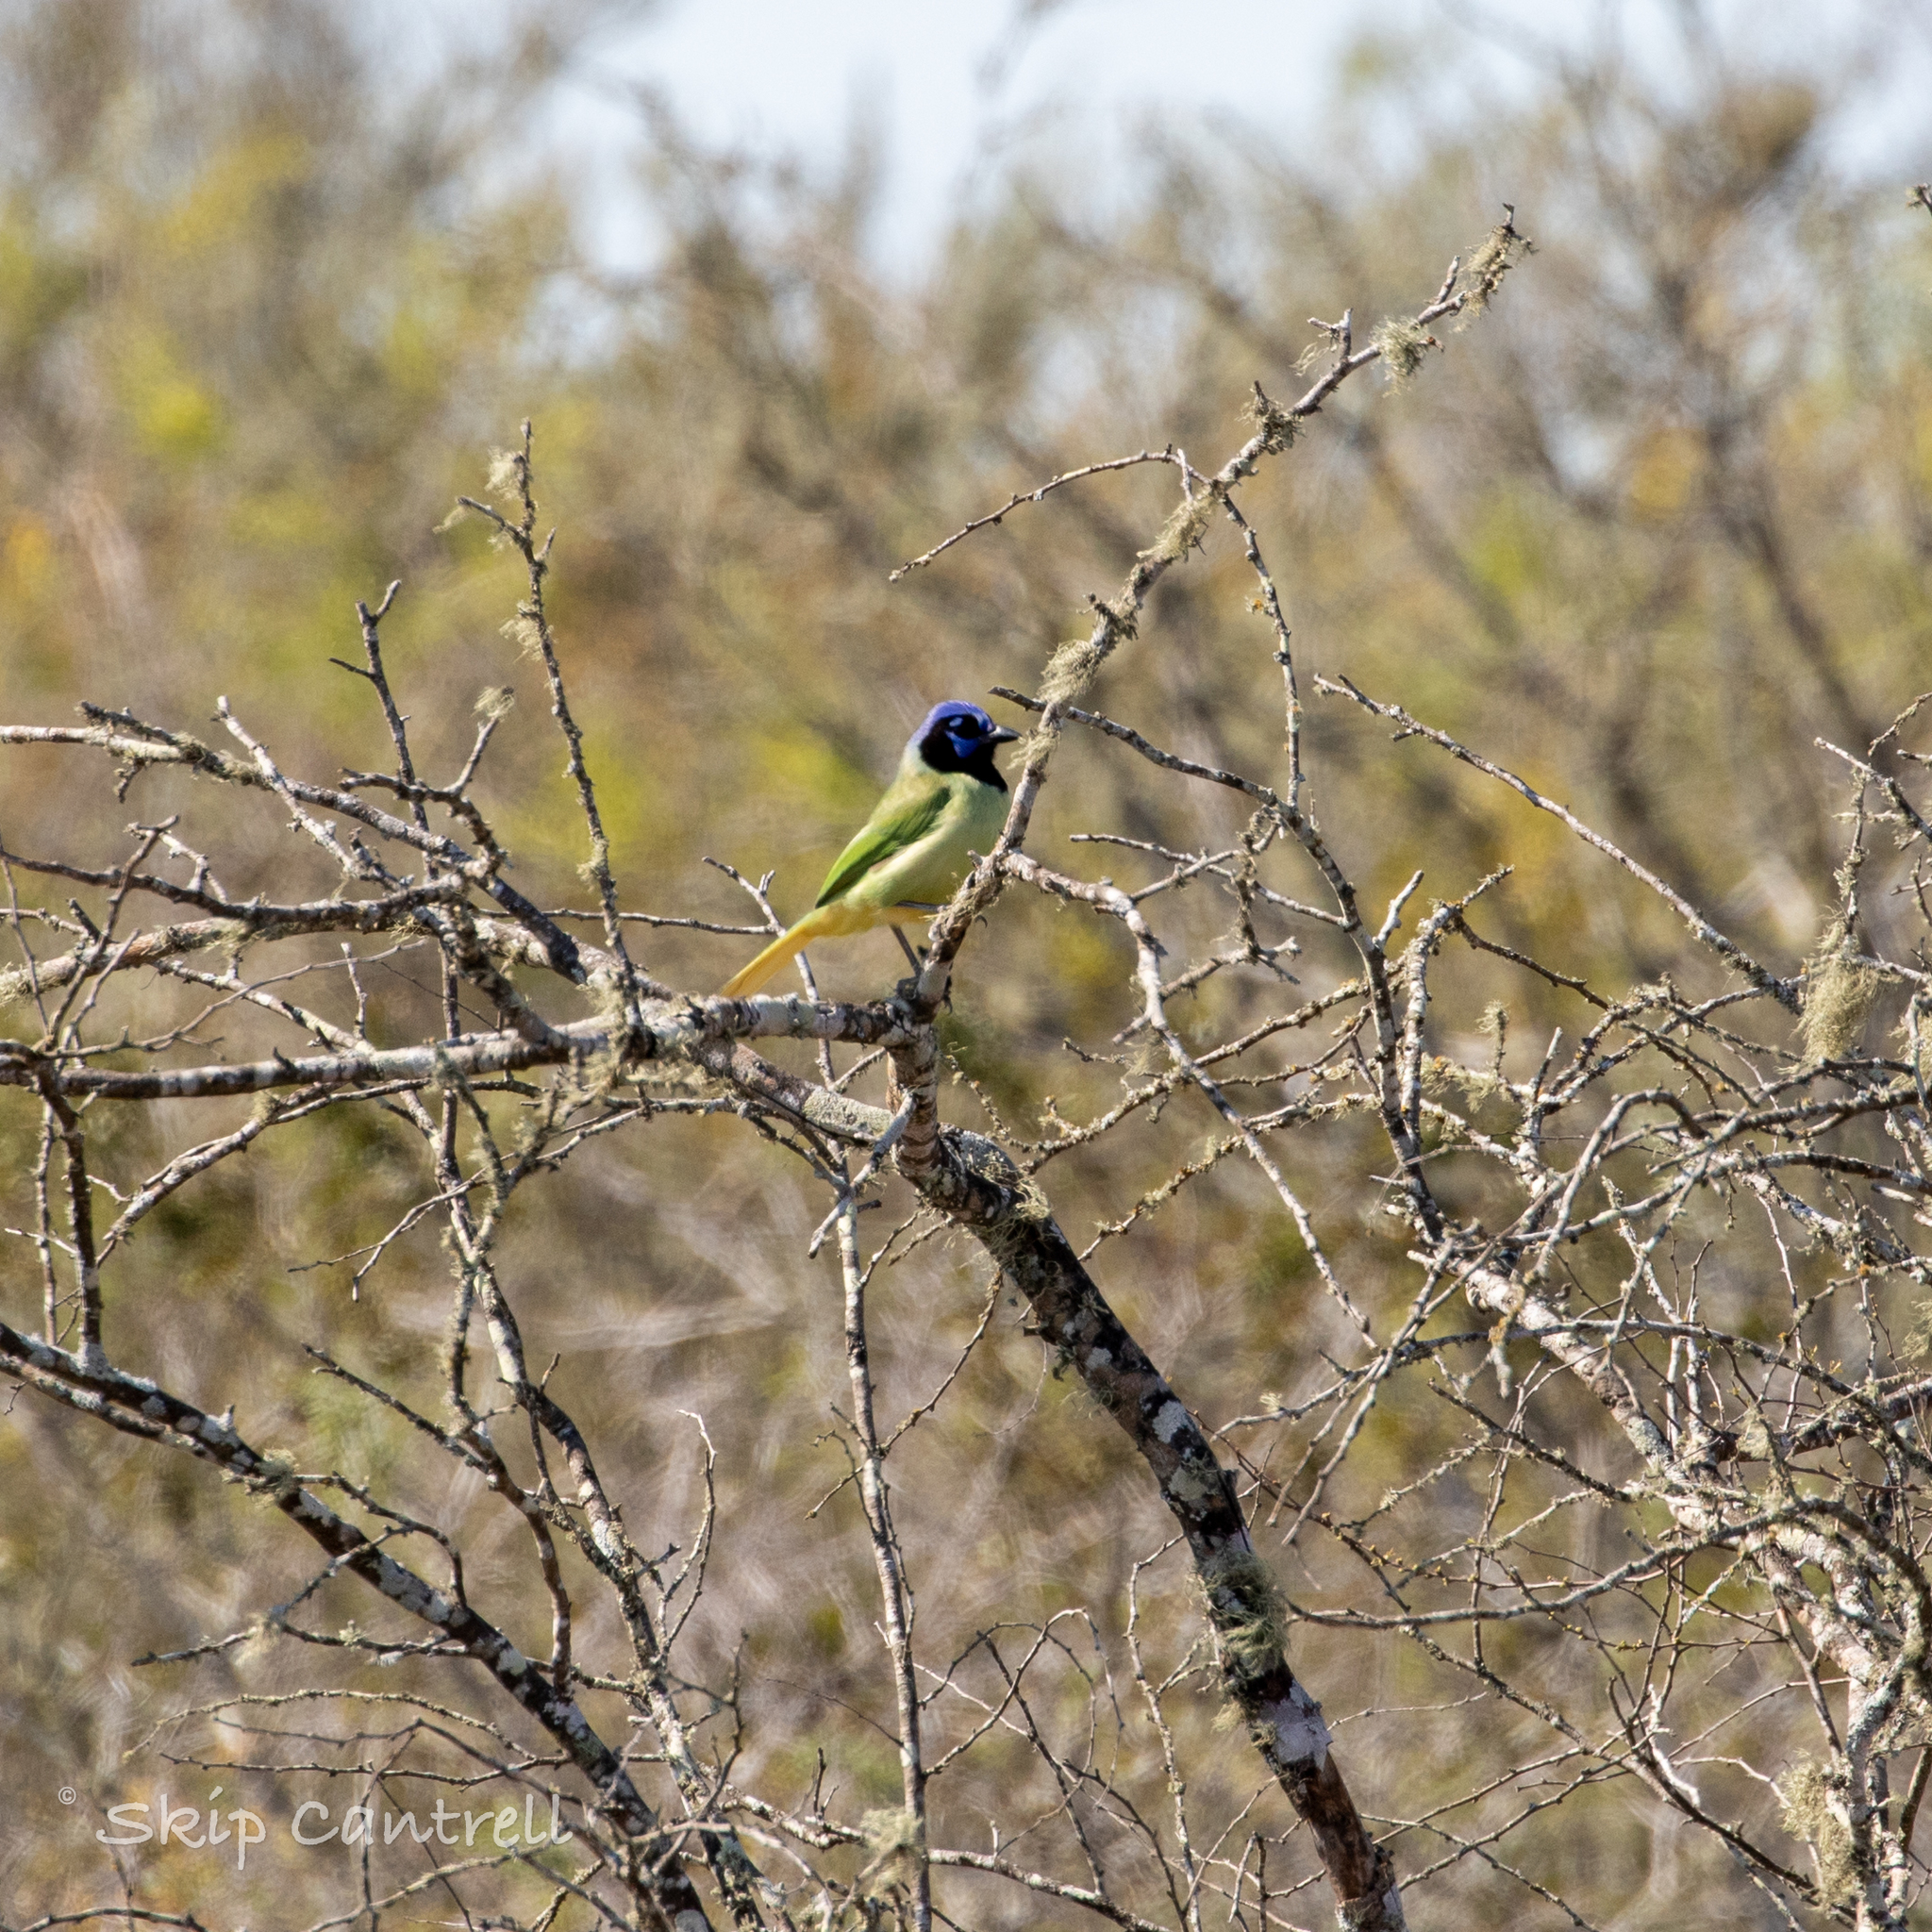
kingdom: Animalia
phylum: Chordata
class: Aves
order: Passeriformes
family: Corvidae
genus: Cyanocorax
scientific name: Cyanocorax yncas
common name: Green jay
